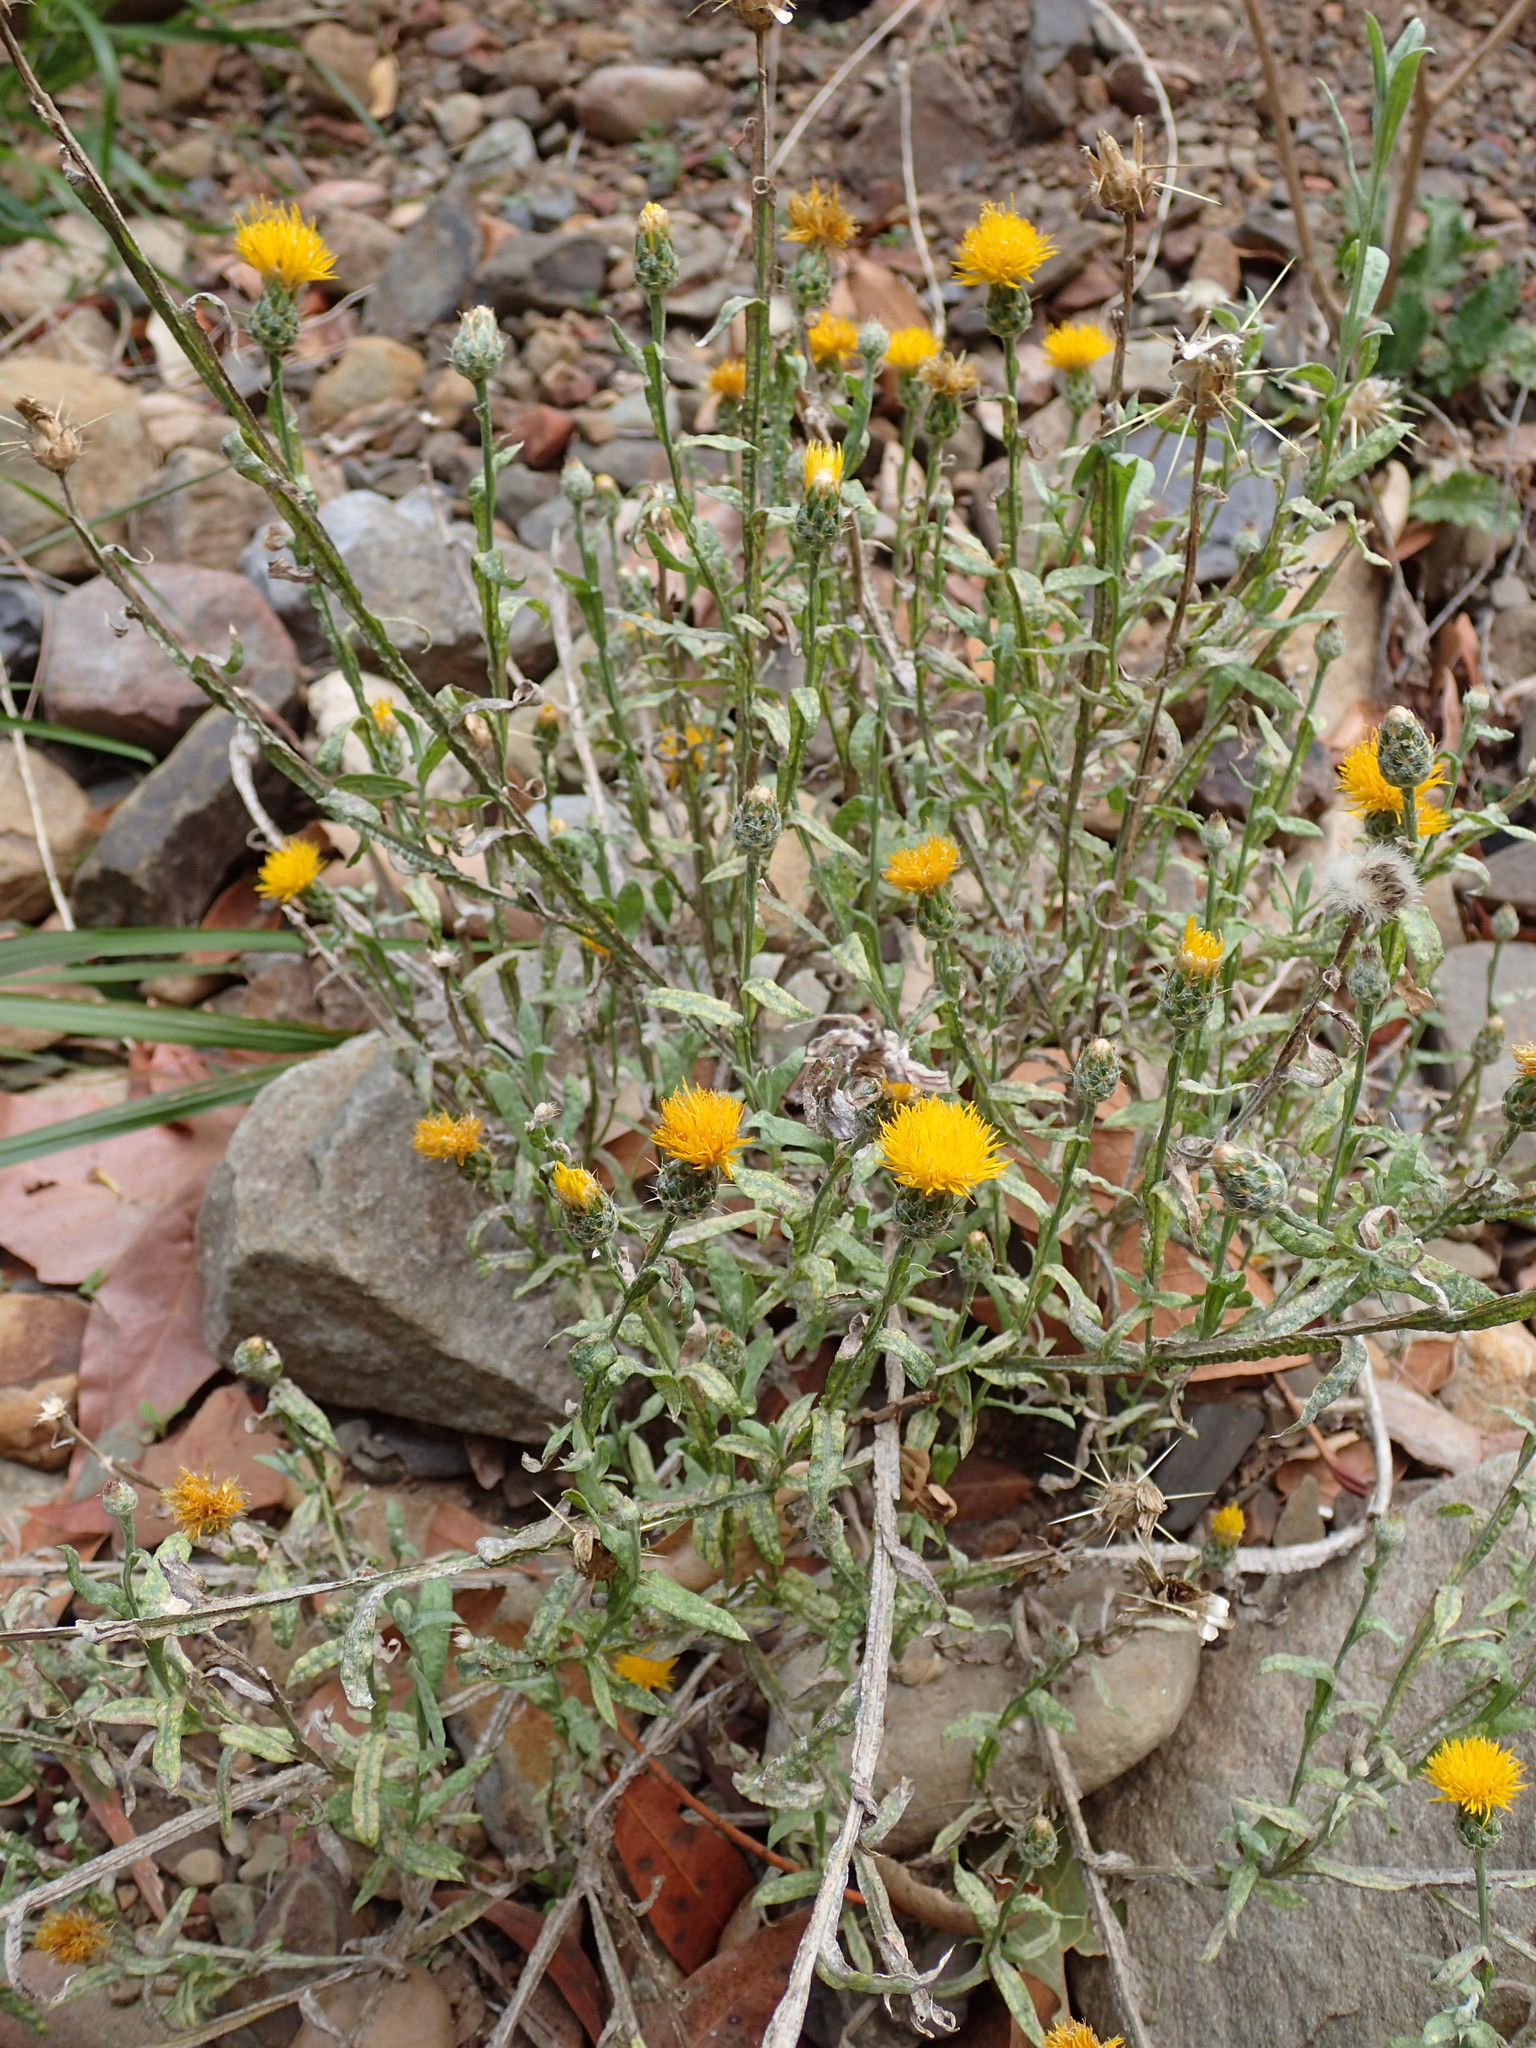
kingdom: Plantae
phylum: Tracheophyta
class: Magnoliopsida
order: Asterales
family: Asteraceae
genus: Centaurea
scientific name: Centaurea solstitialis
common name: Yellow star-thistle
